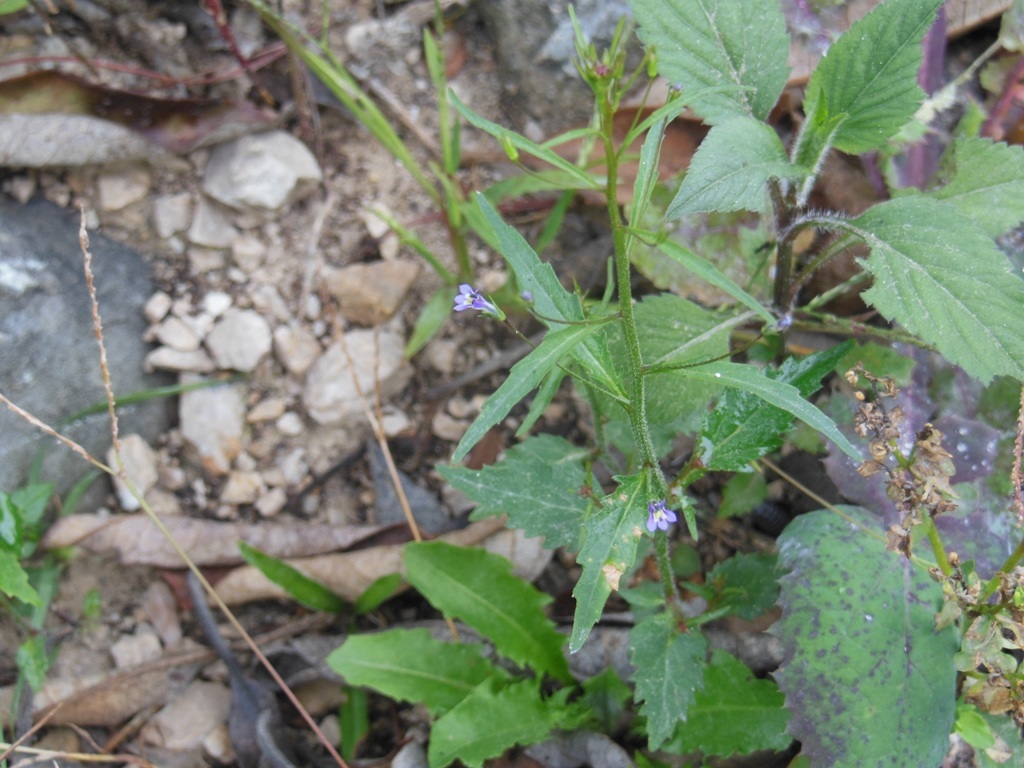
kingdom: Plantae
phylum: Tracheophyta
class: Magnoliopsida
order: Asterales
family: Campanulaceae
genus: Lobelia
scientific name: Lobelia longicaulis
